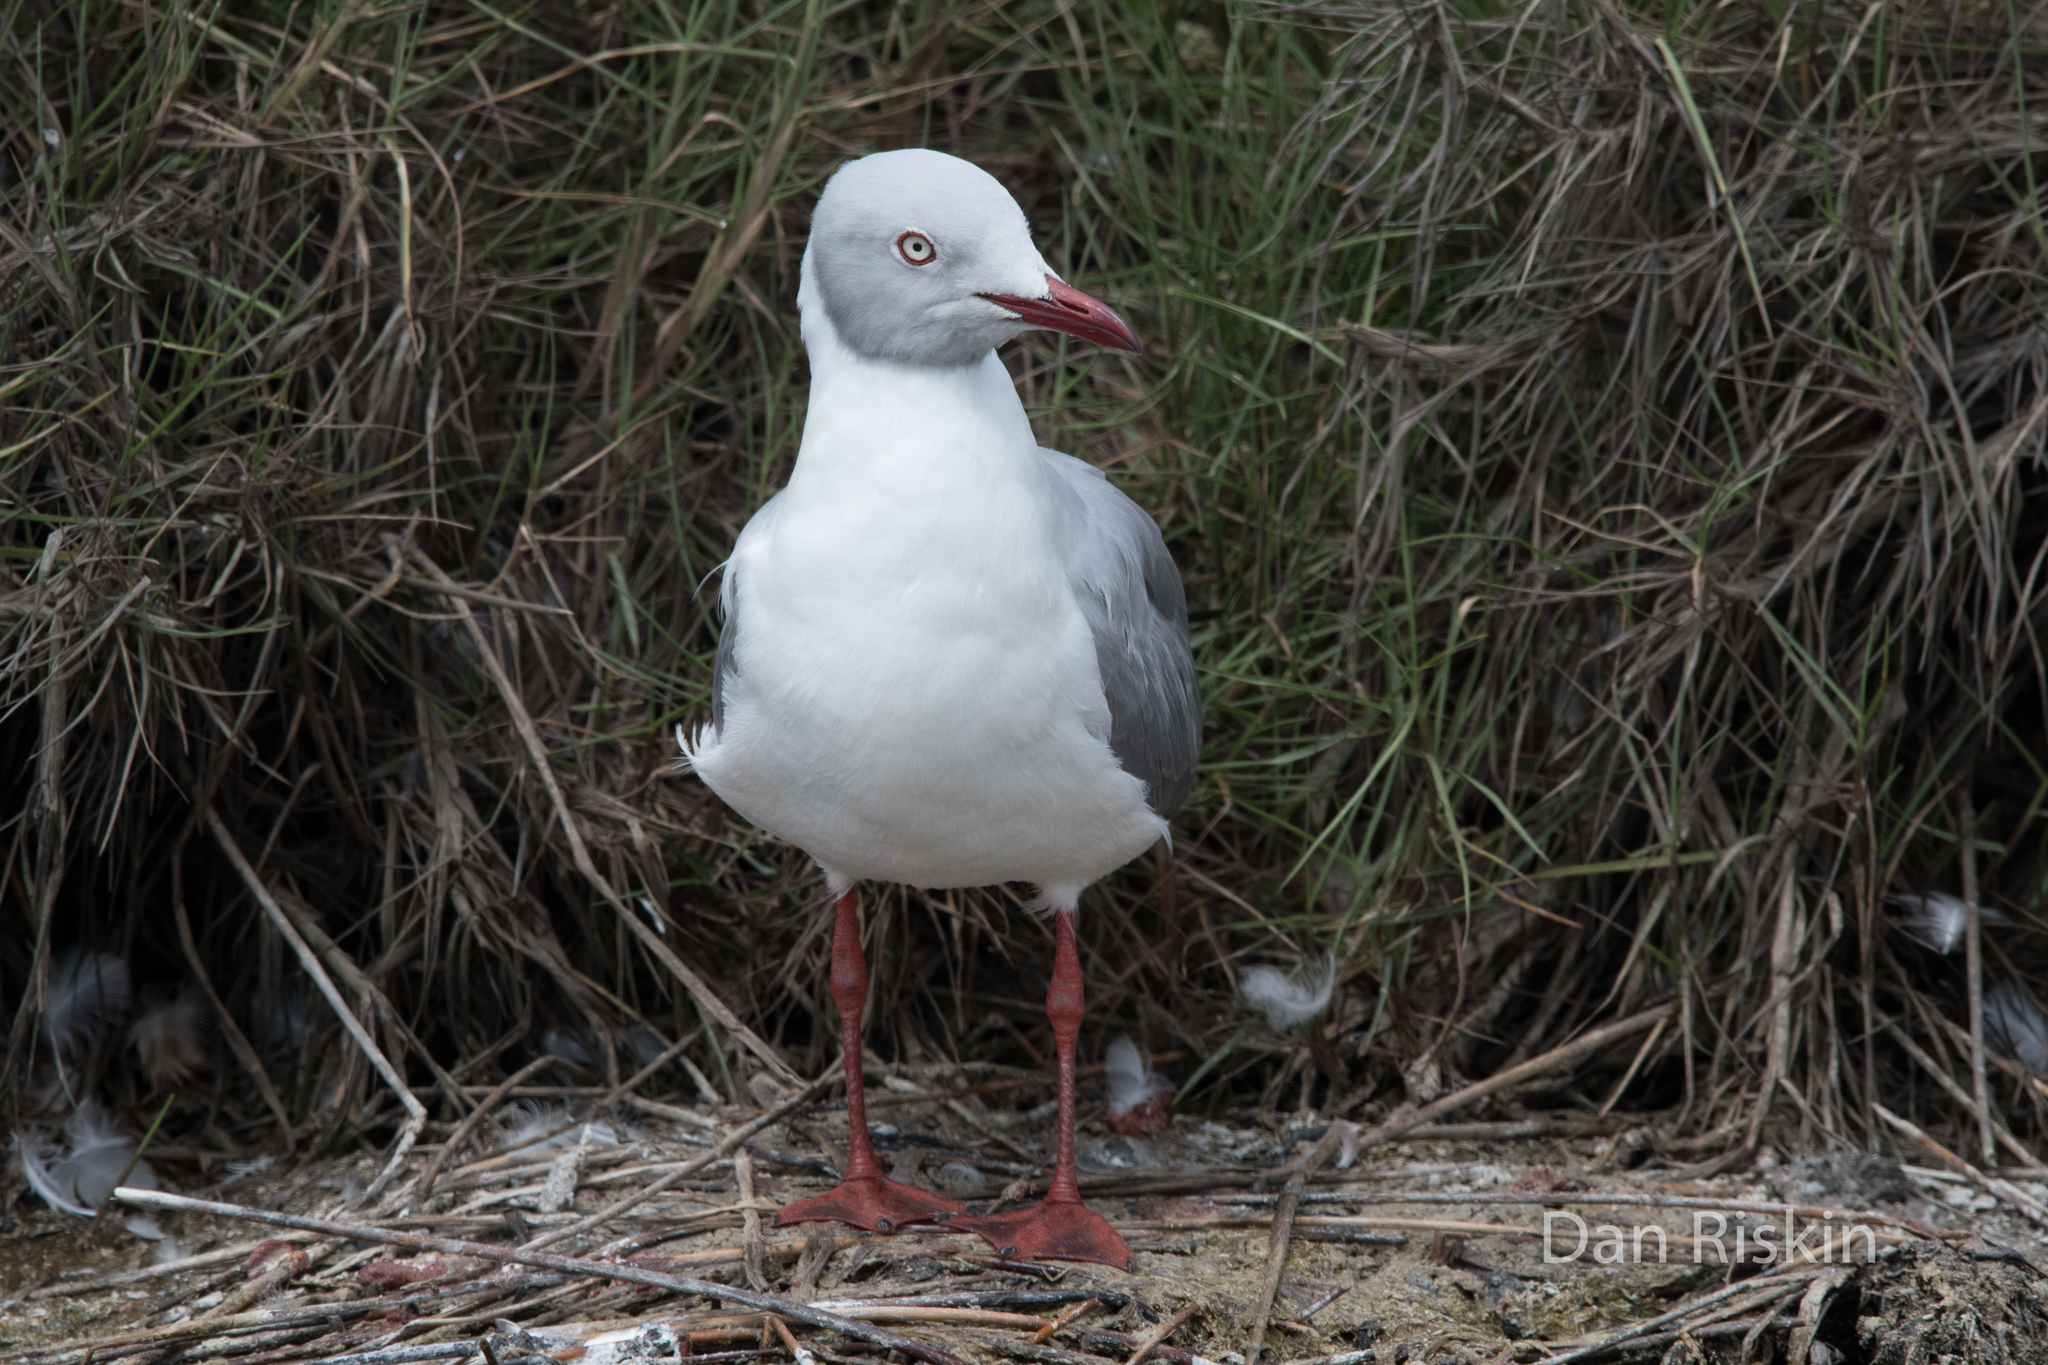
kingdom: Animalia
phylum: Chordata
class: Aves
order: Charadriiformes
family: Laridae
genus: Chroicocephalus
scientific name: Chroicocephalus cirrocephalus
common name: Grey-headed gull
